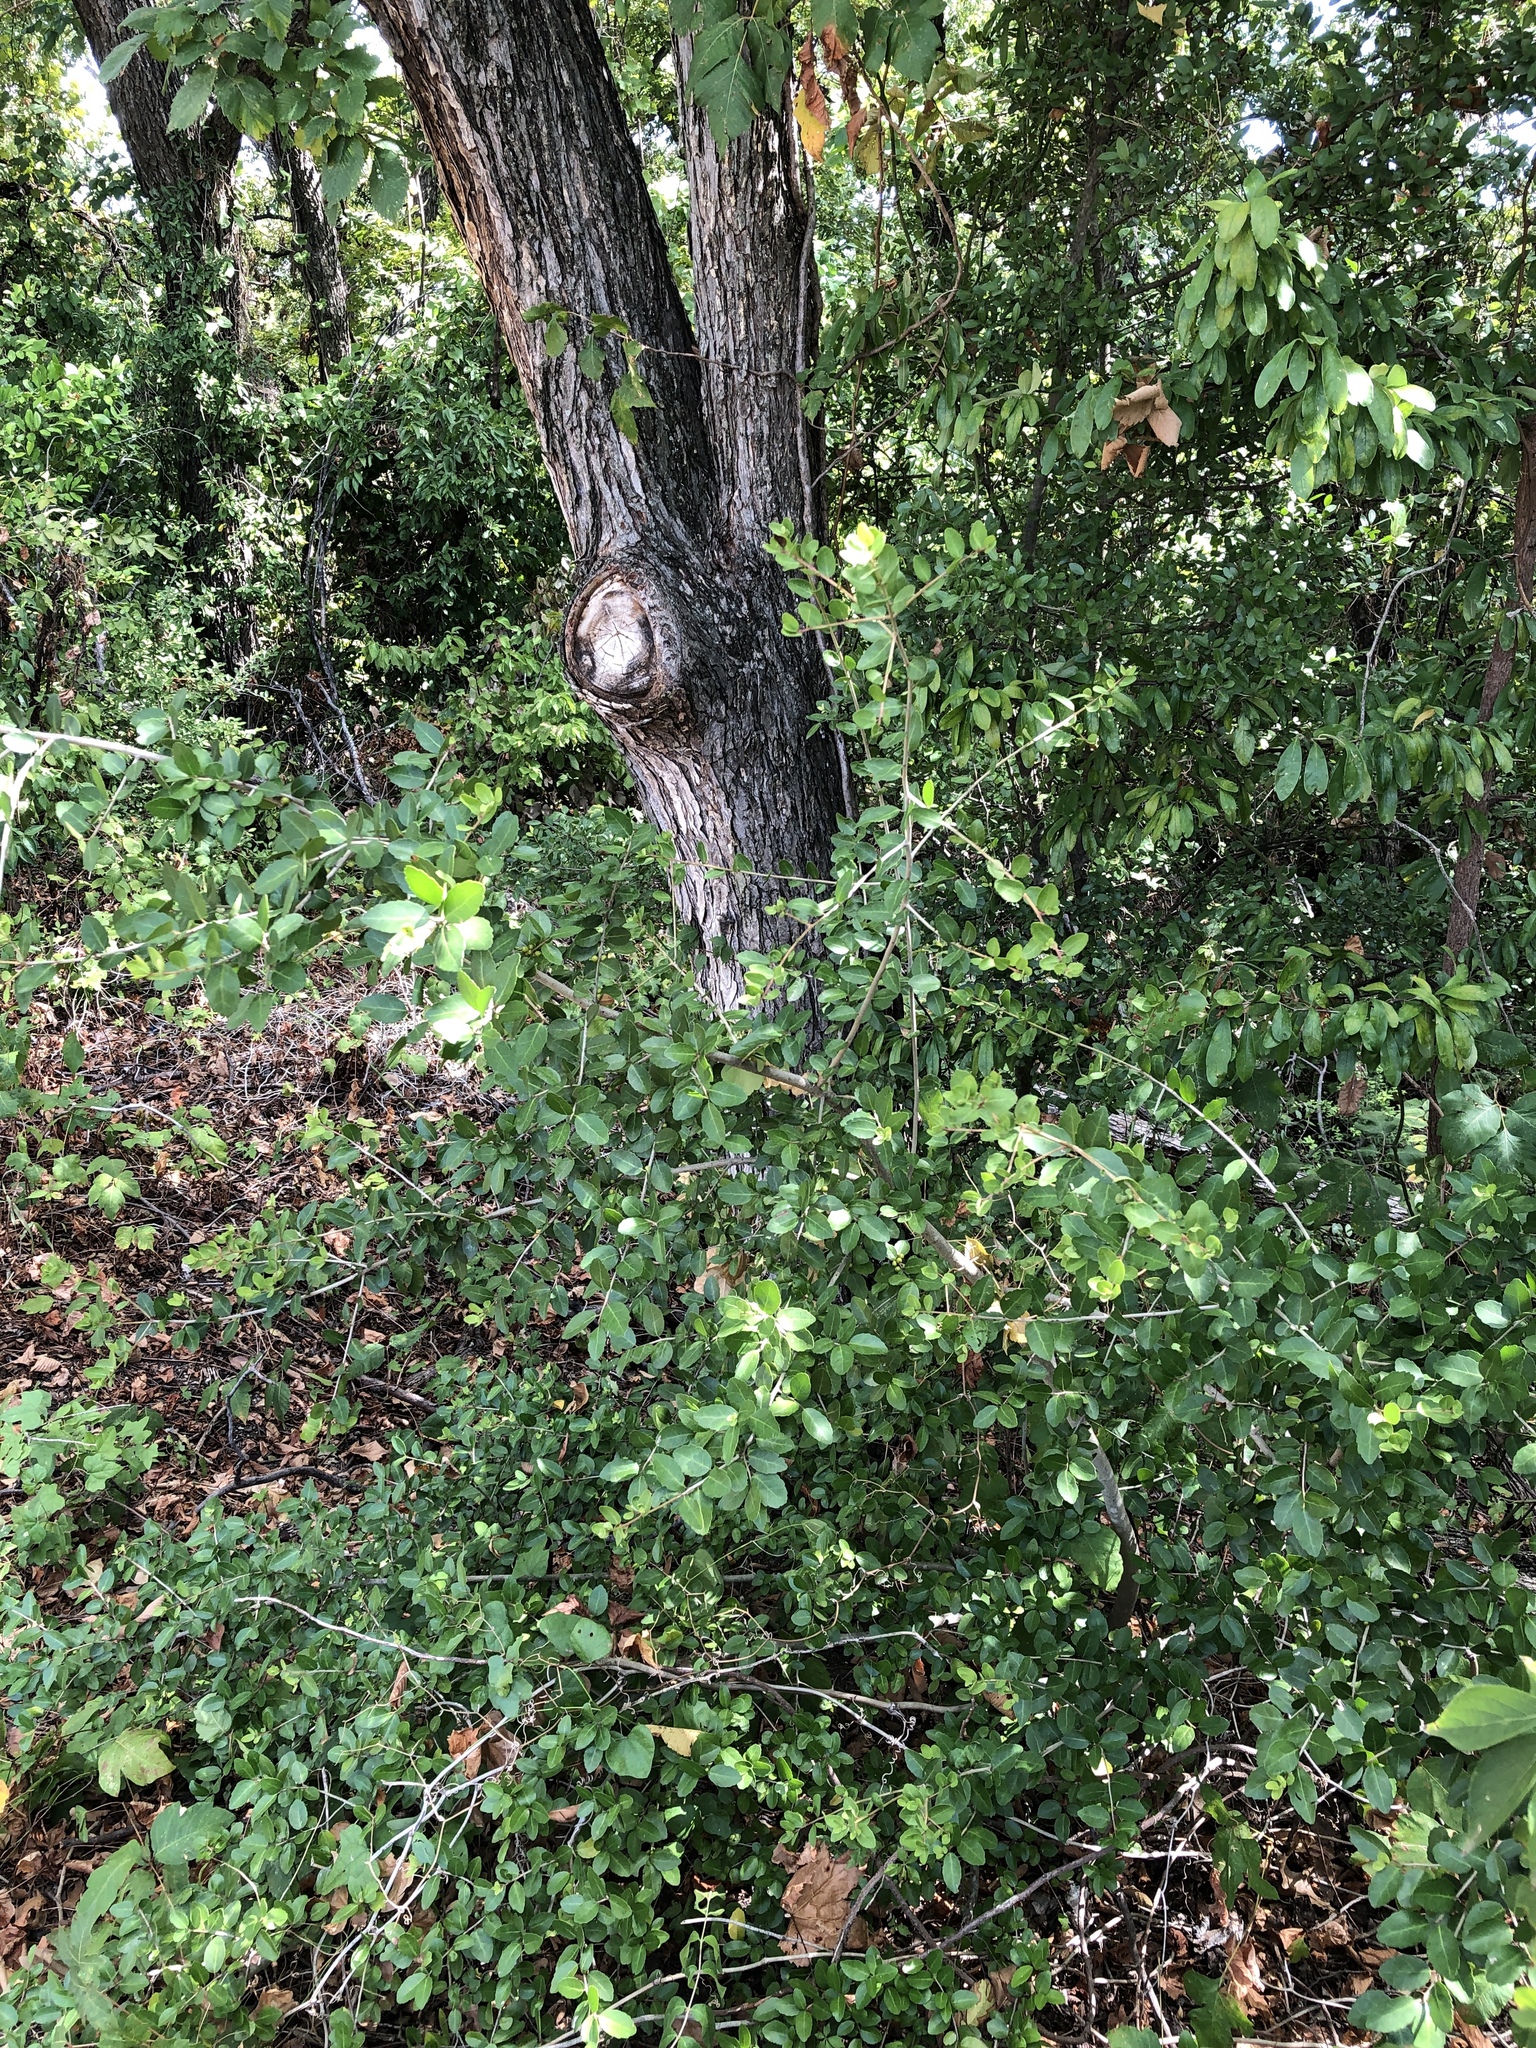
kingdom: Plantae
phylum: Tracheophyta
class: Magnoliopsida
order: Aquifoliales
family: Aquifoliaceae
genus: Ilex
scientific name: Ilex vomitoria
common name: Yaupon holly
